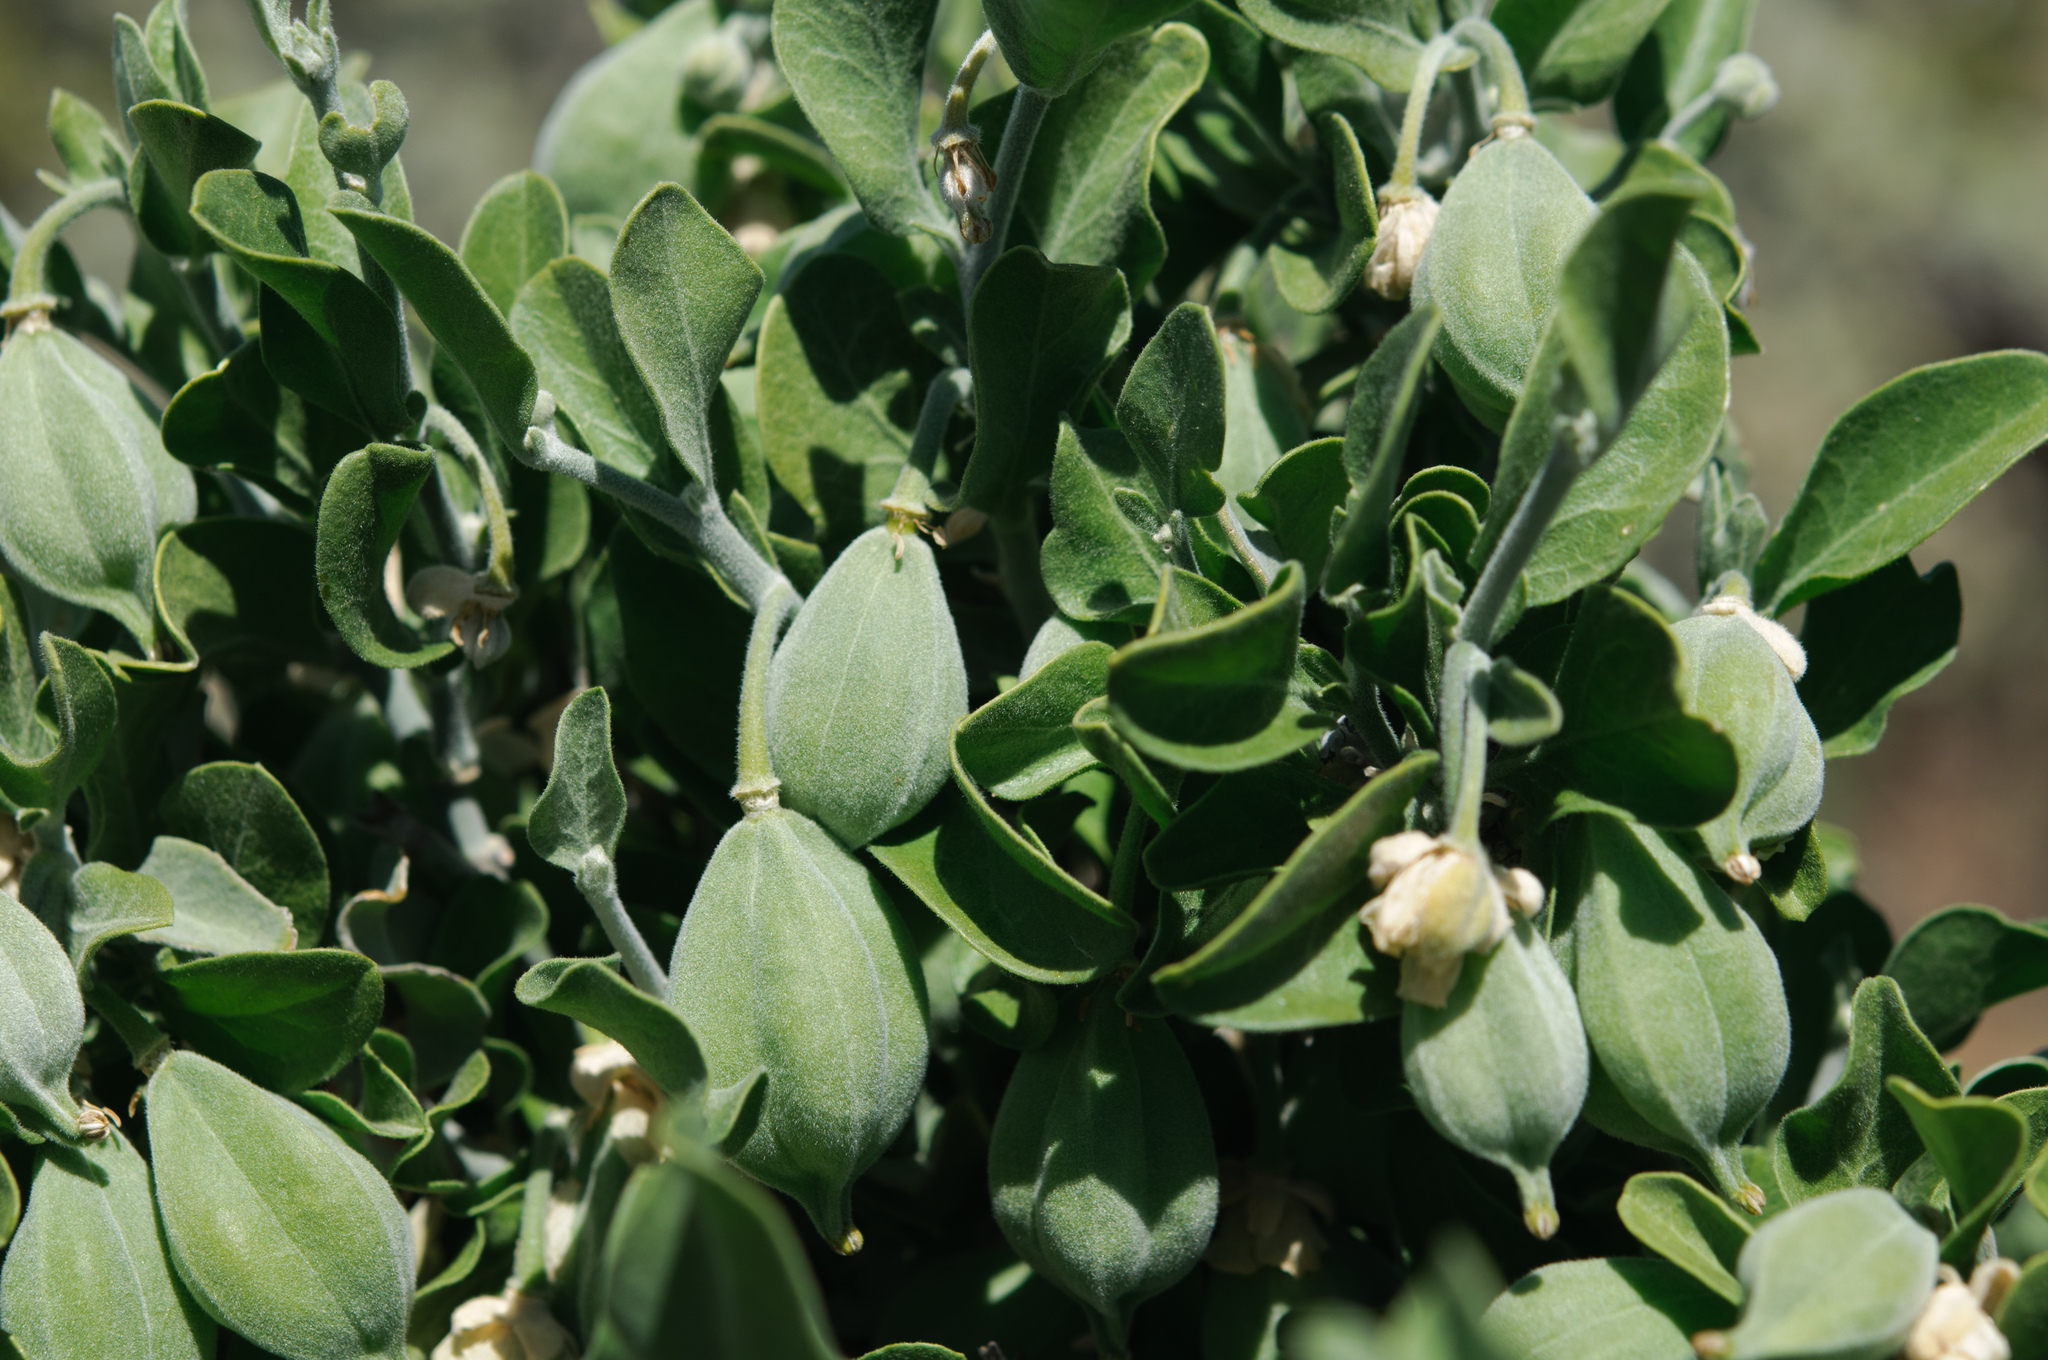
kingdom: Plantae
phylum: Tracheophyta
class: Magnoliopsida
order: Zygophyllales
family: Zygophyllaceae
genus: Viscainoa
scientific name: Viscainoa geniculata
